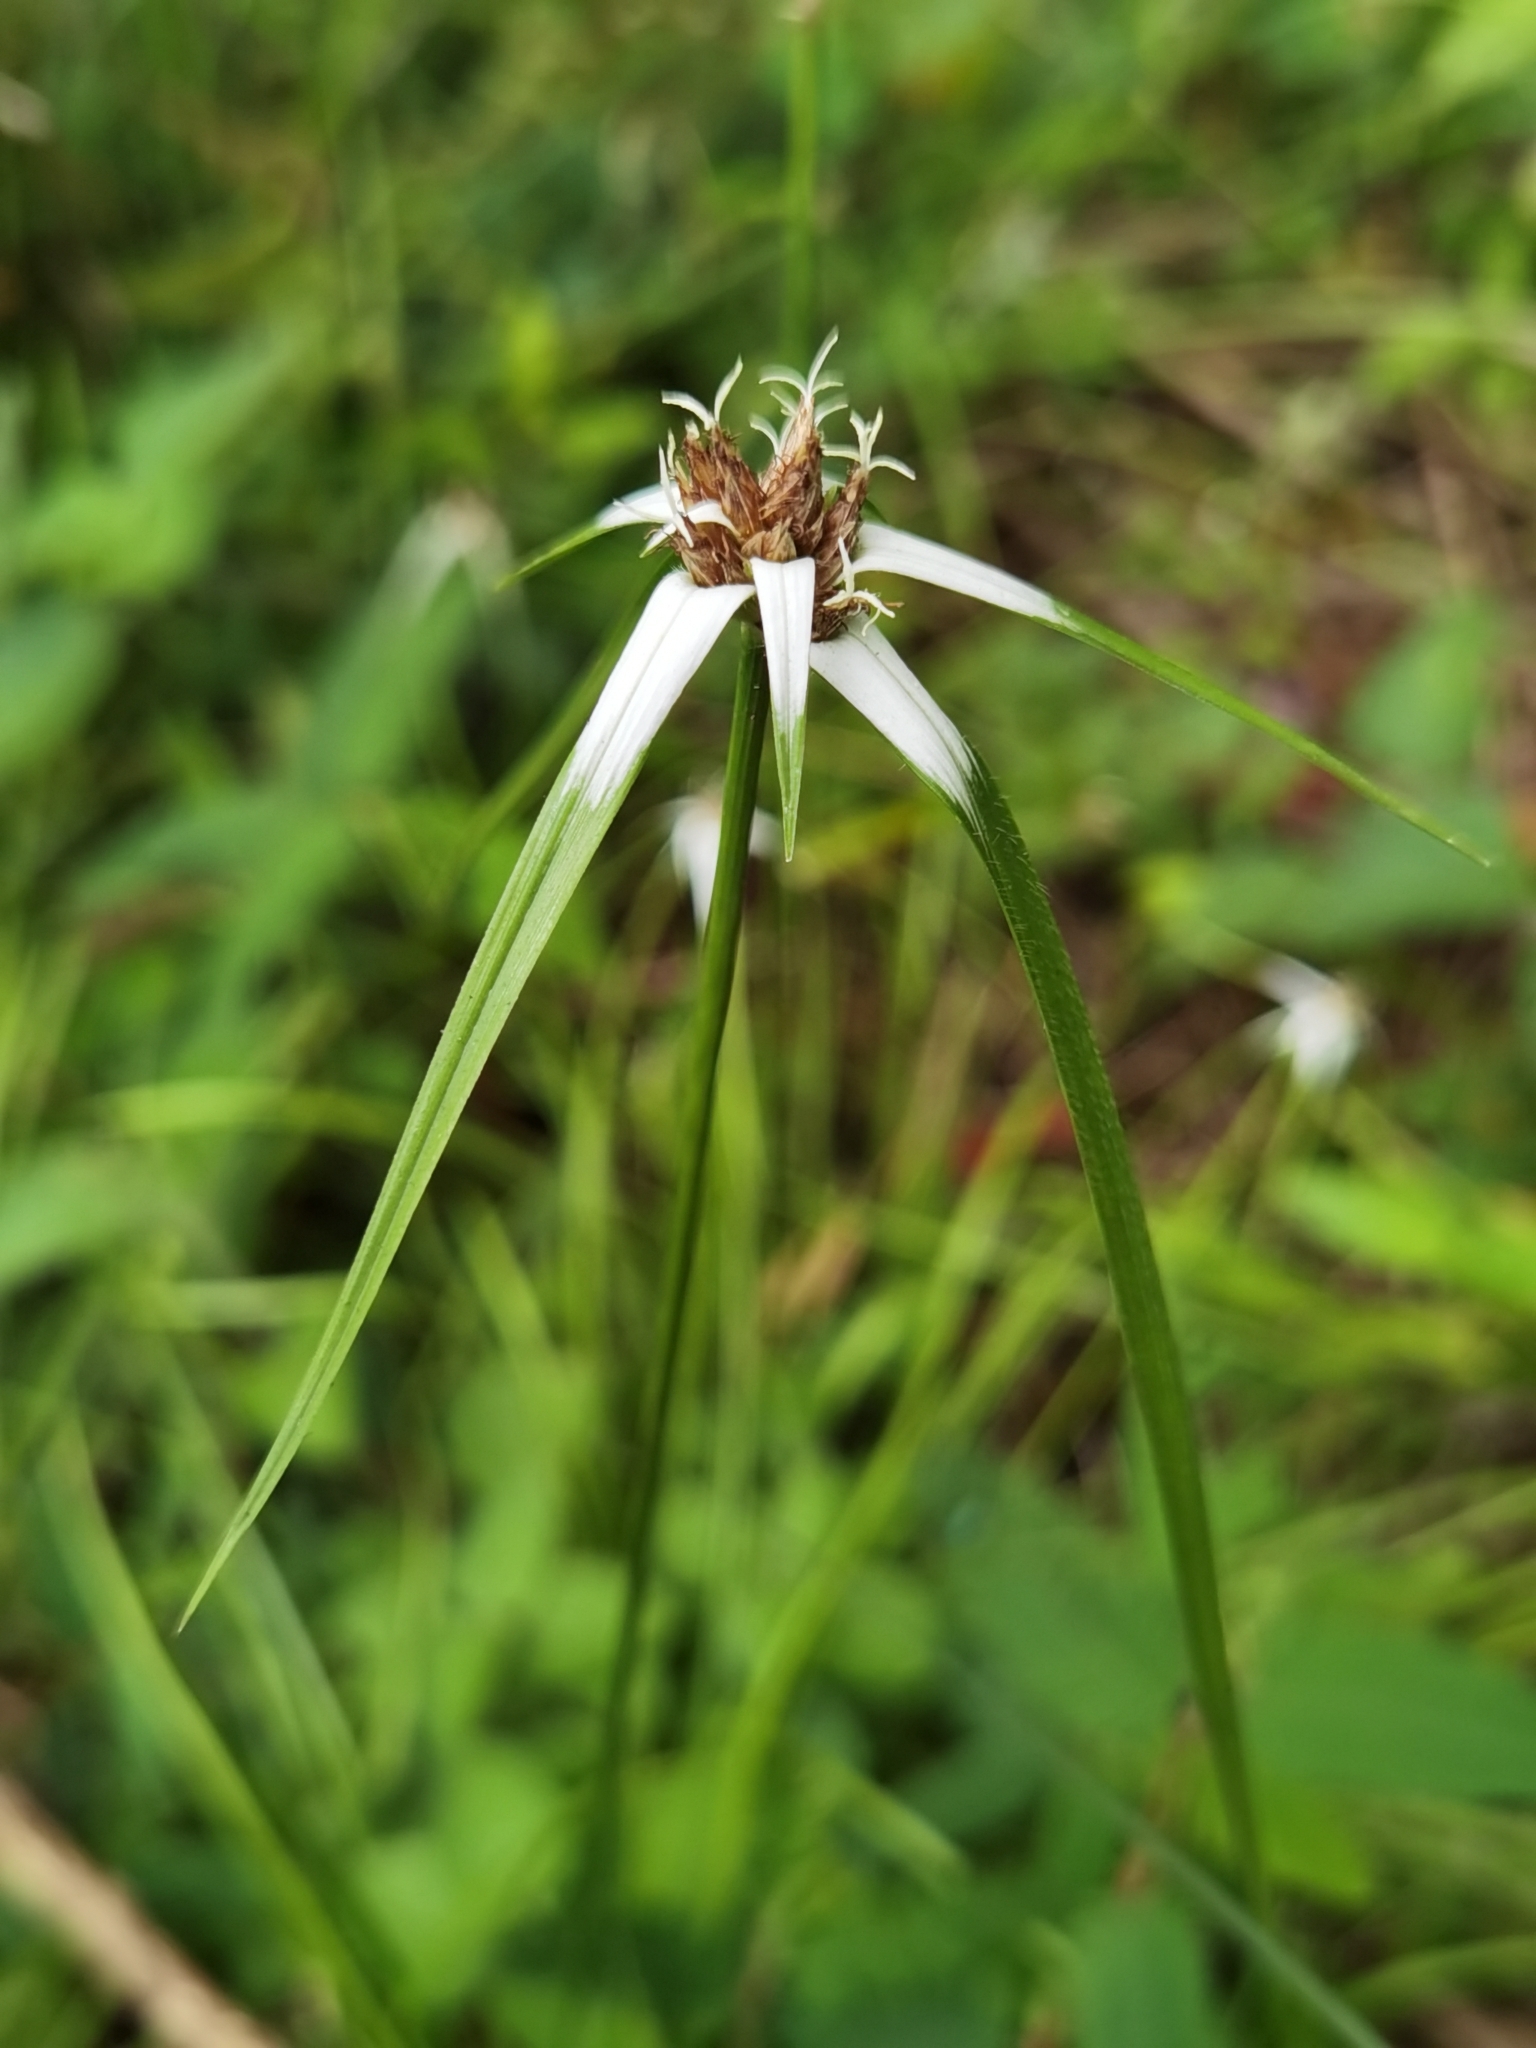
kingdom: Plantae
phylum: Tracheophyta
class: Liliopsida
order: Poales
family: Cyperaceae
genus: Rhynchospora
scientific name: Rhynchospora nervosa
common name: Star sedge
